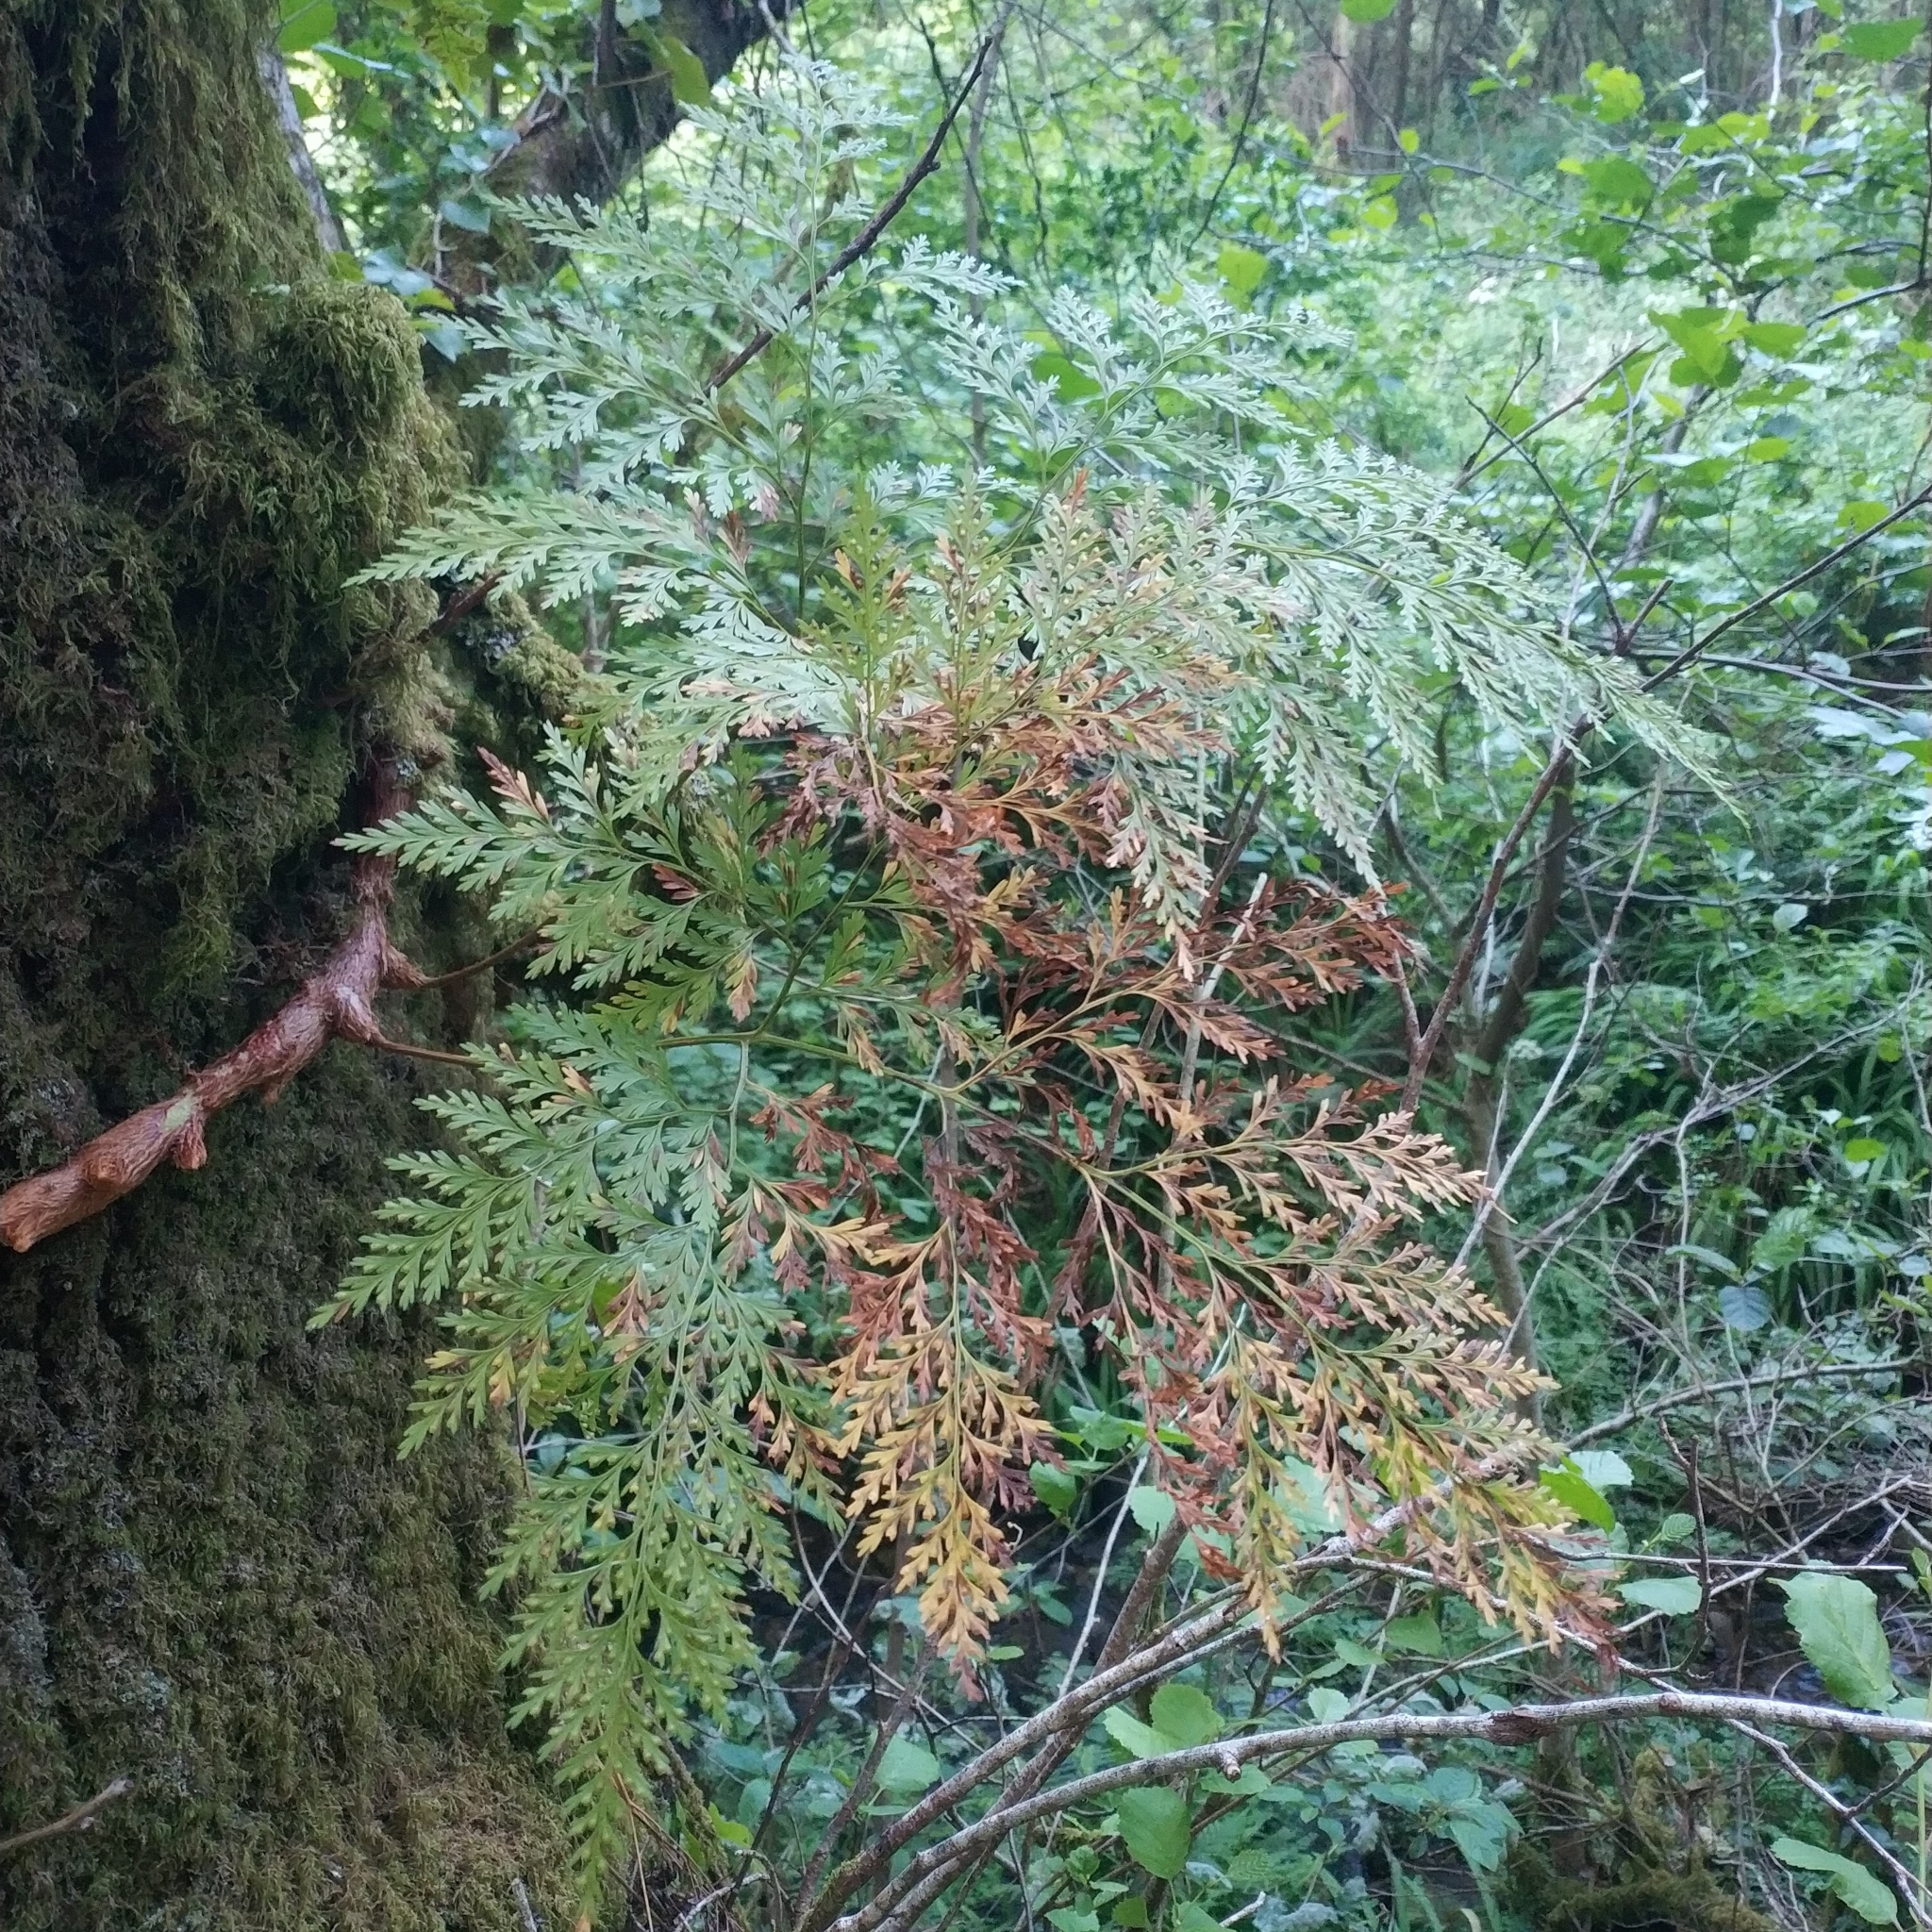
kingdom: Plantae
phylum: Tracheophyta
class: Polypodiopsida
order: Polypodiales
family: Davalliaceae
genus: Davallia
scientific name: Davallia canariensis
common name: Hare's-foot fern
